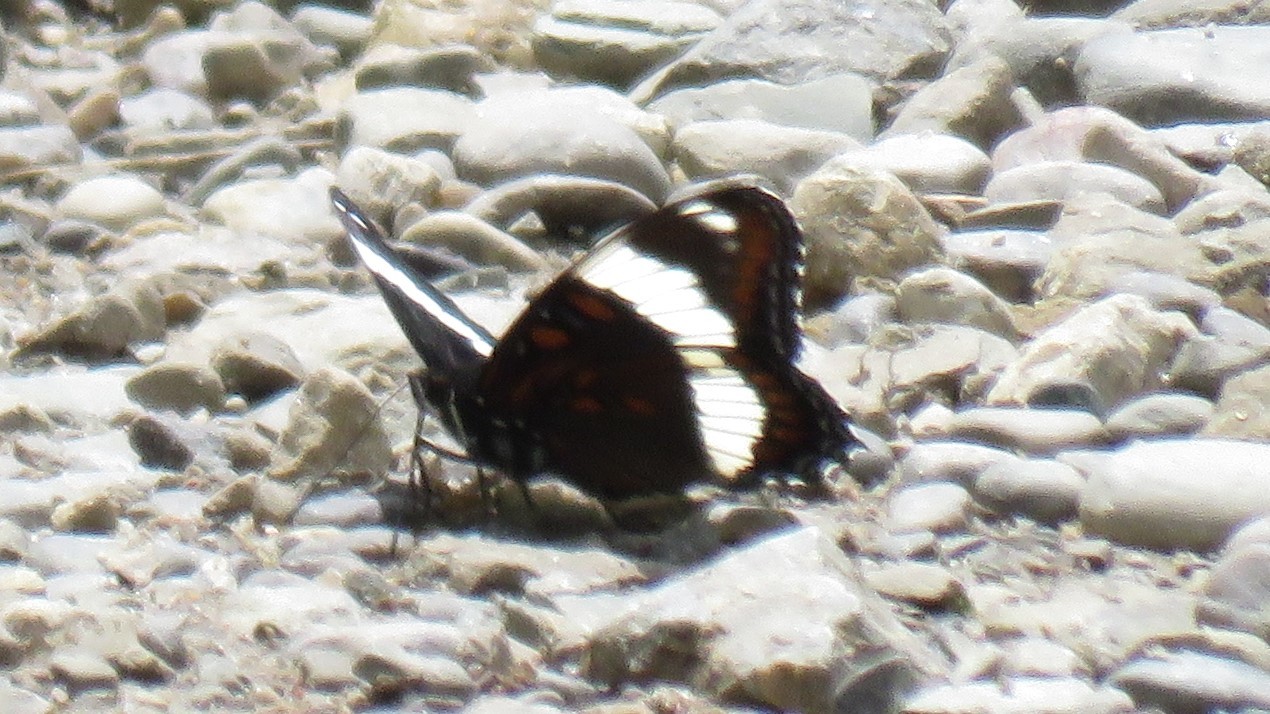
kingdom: Animalia
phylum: Arthropoda
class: Insecta
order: Lepidoptera
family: Nymphalidae
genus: Limenitis
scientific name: Limenitis arthemis
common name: Red-spotted admiral
